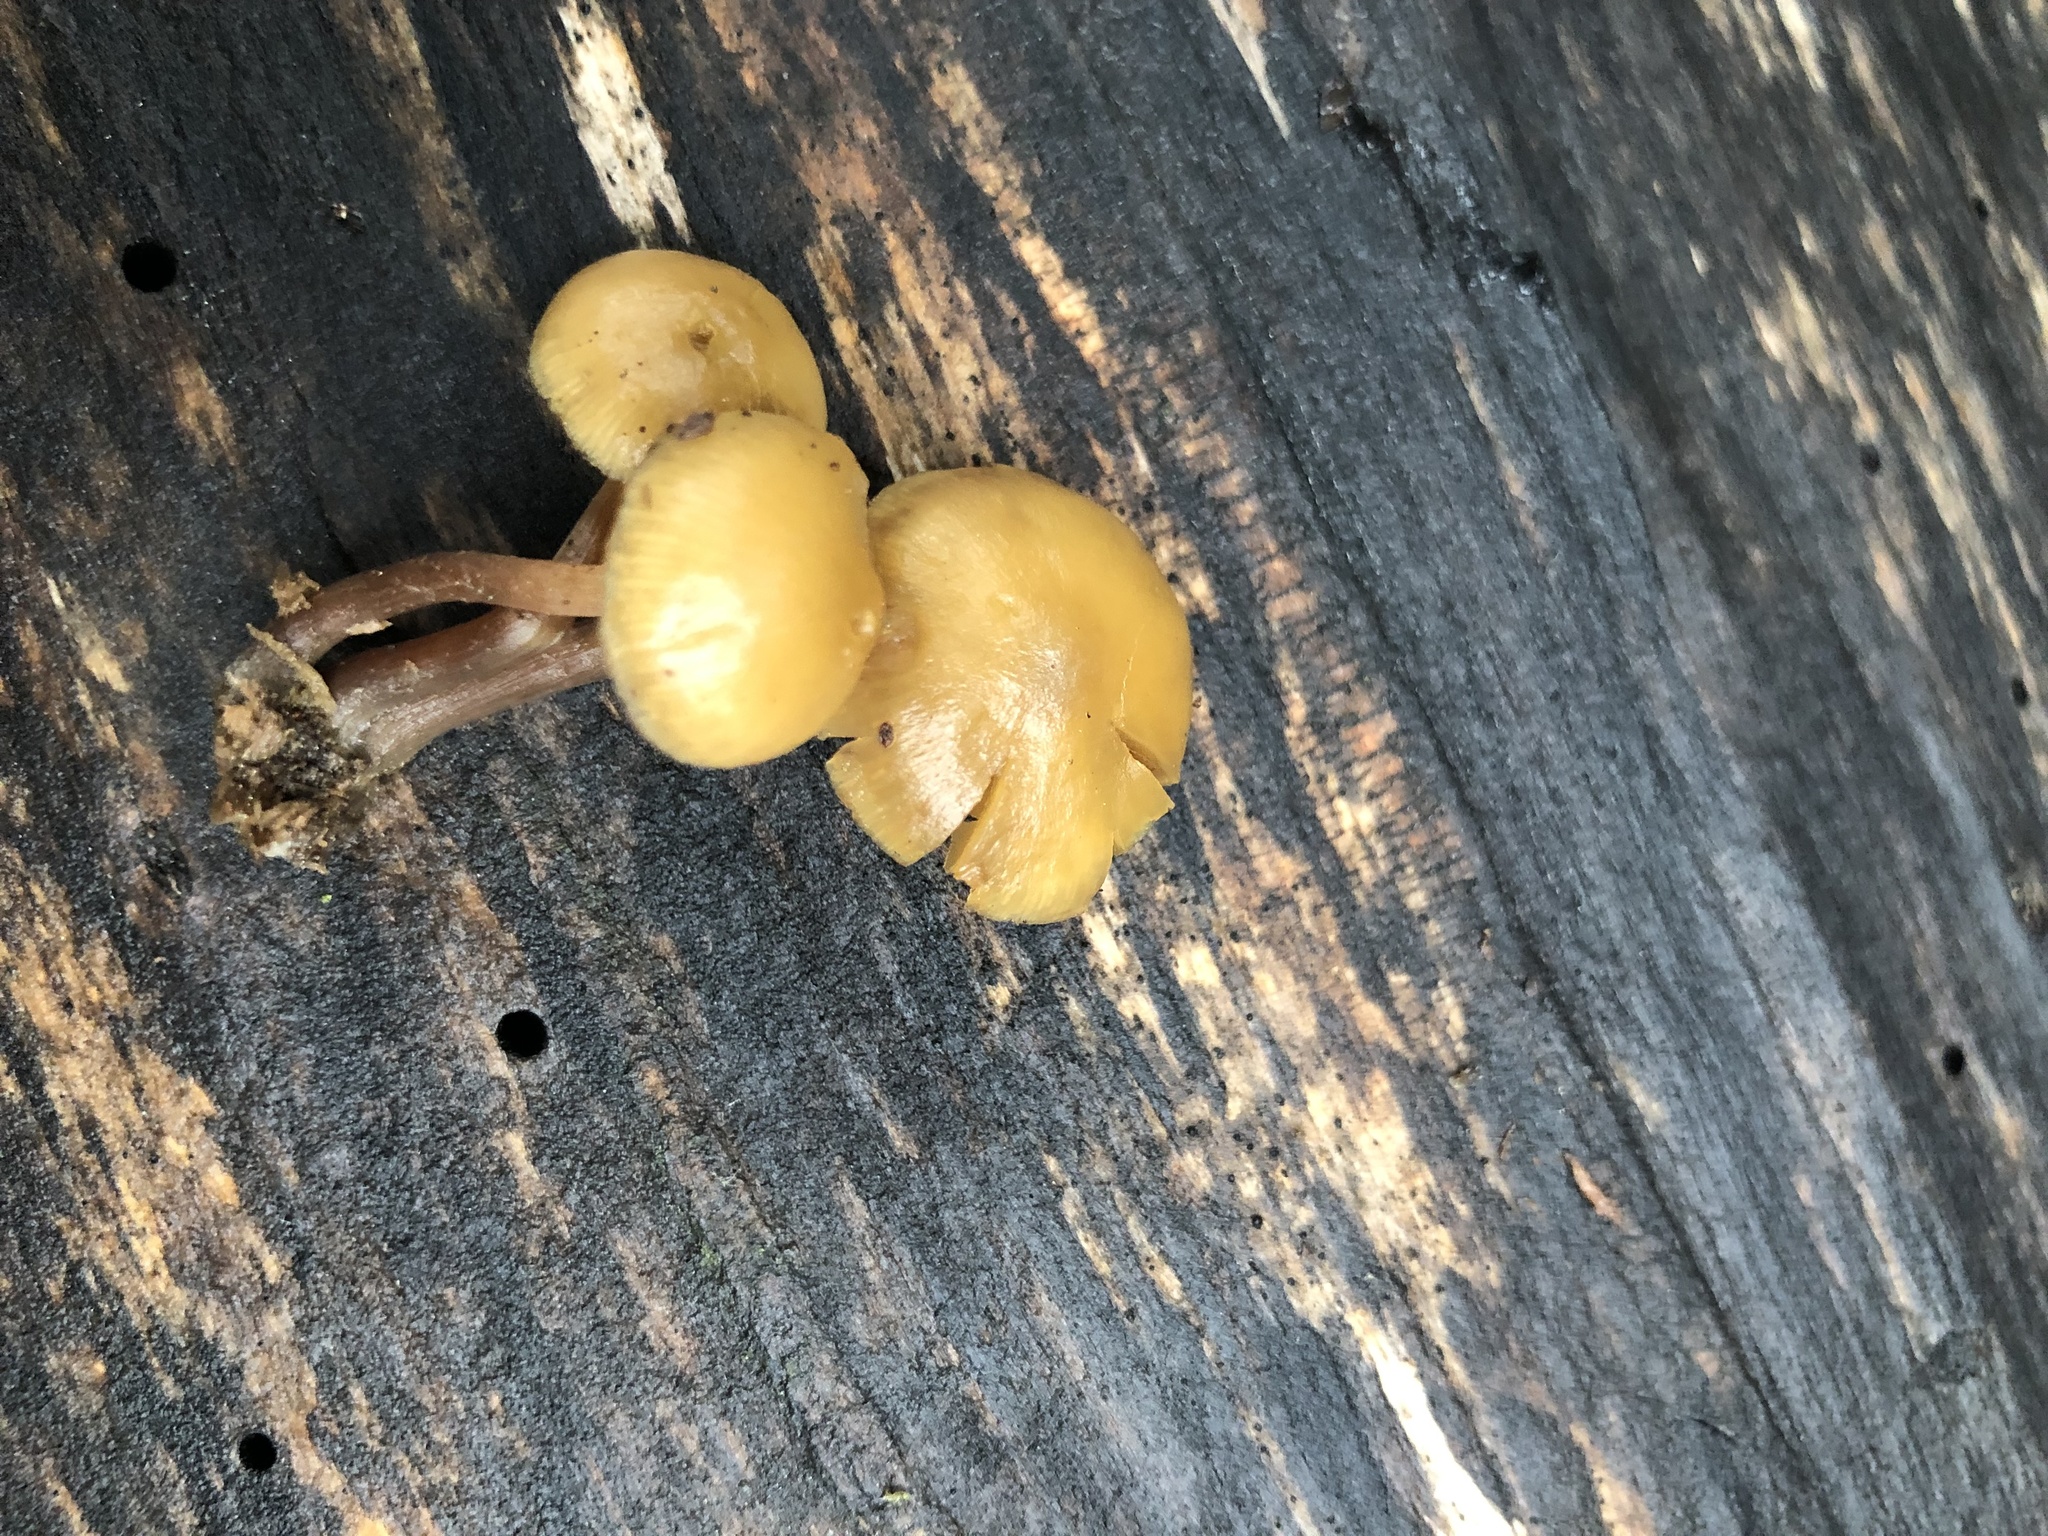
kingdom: Fungi
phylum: Basidiomycota
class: Agaricomycetes
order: Agaricales
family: Strophariaceae
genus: Pholiota
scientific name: Pholiota lignicola
